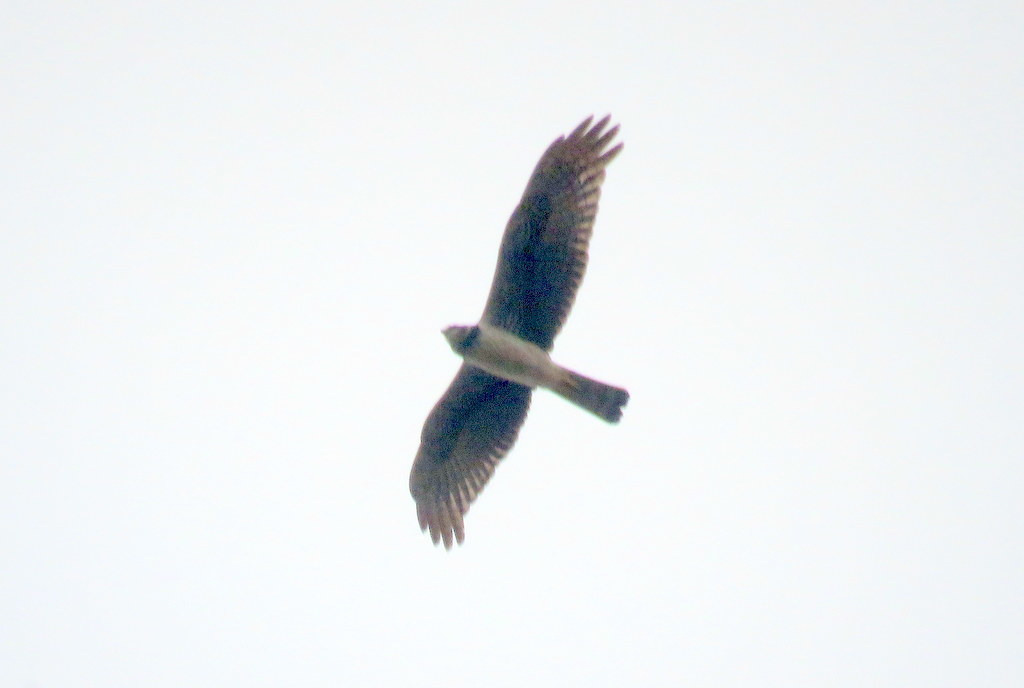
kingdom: Animalia
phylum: Chordata
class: Aves
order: Accipitriformes
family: Accipitridae
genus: Circus
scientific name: Circus buffoni
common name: Long-winged harrier
